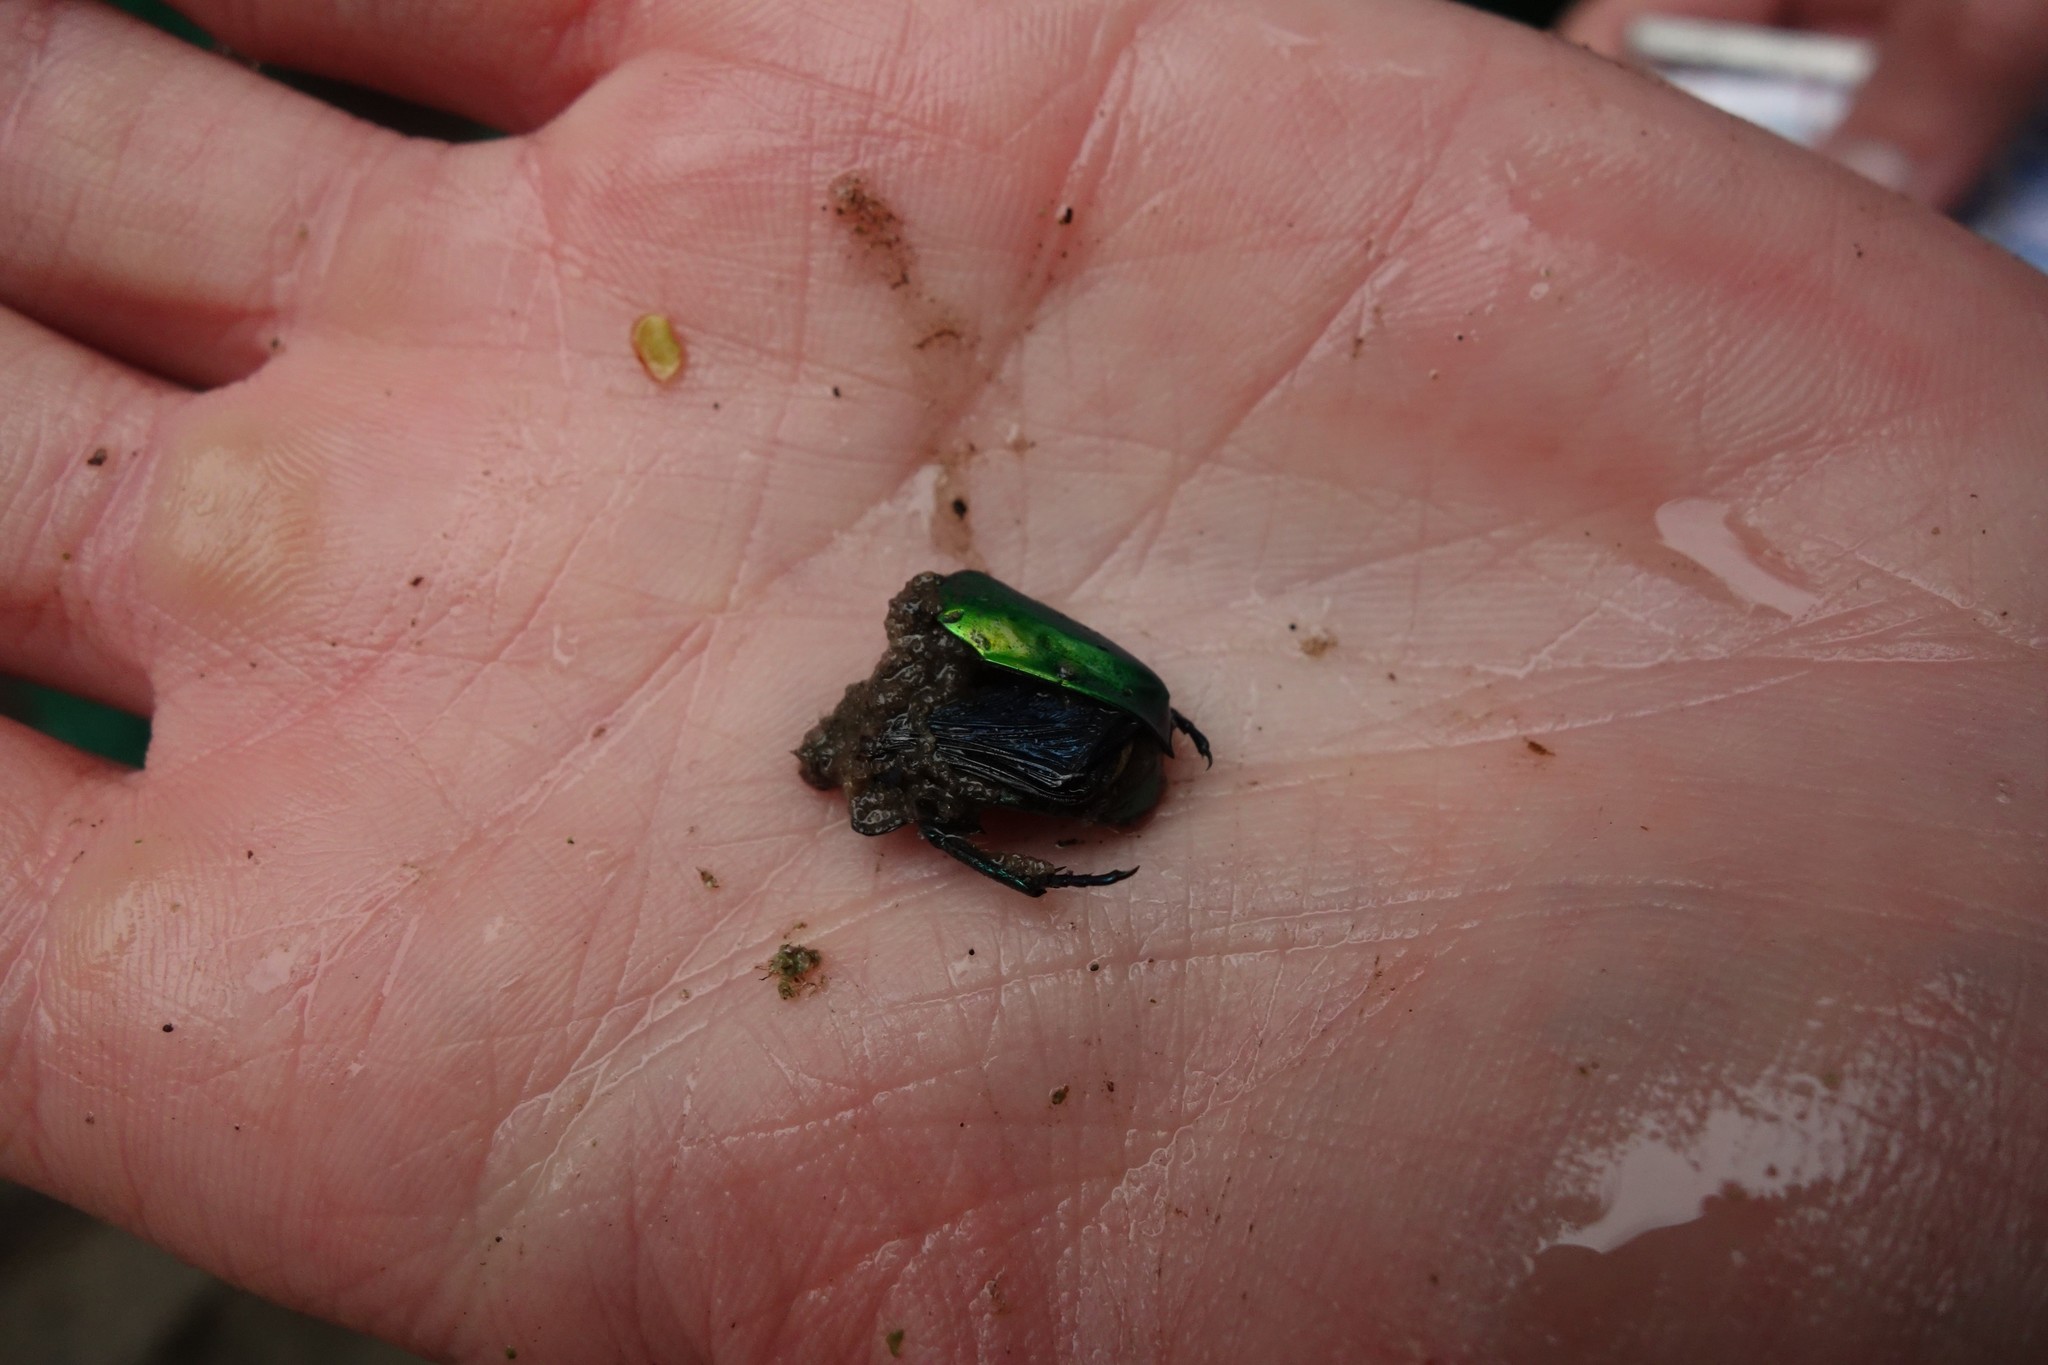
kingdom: Animalia
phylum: Arthropoda
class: Insecta
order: Coleoptera
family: Scarabaeidae
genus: Protaetia
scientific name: Protaetia affinis
